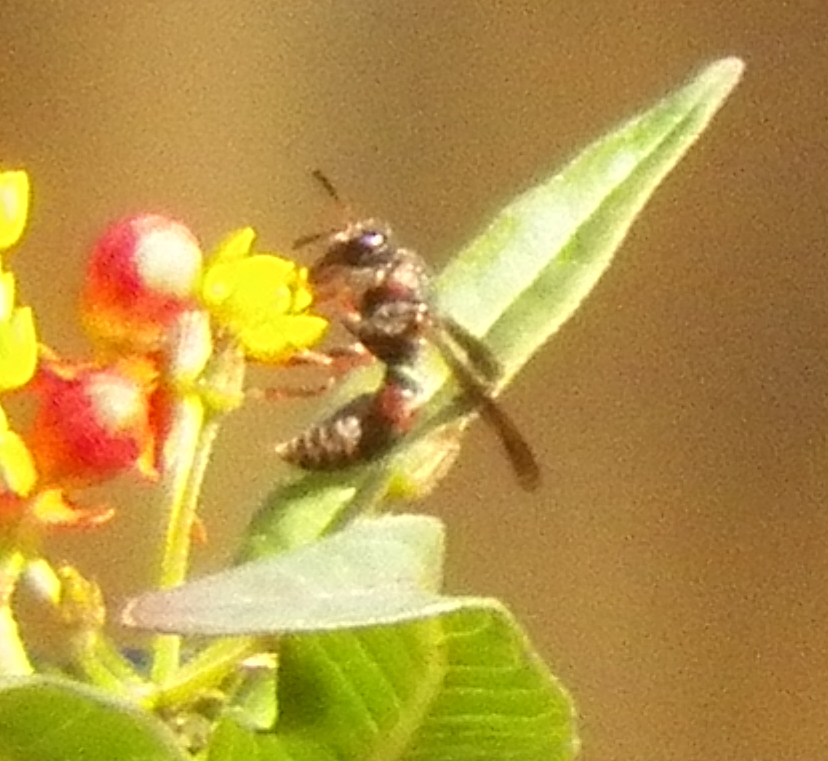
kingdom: Animalia
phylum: Arthropoda
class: Insecta
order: Hymenoptera
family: Eumenidae
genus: Pachodynerus
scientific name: Pachodynerus erynnis
